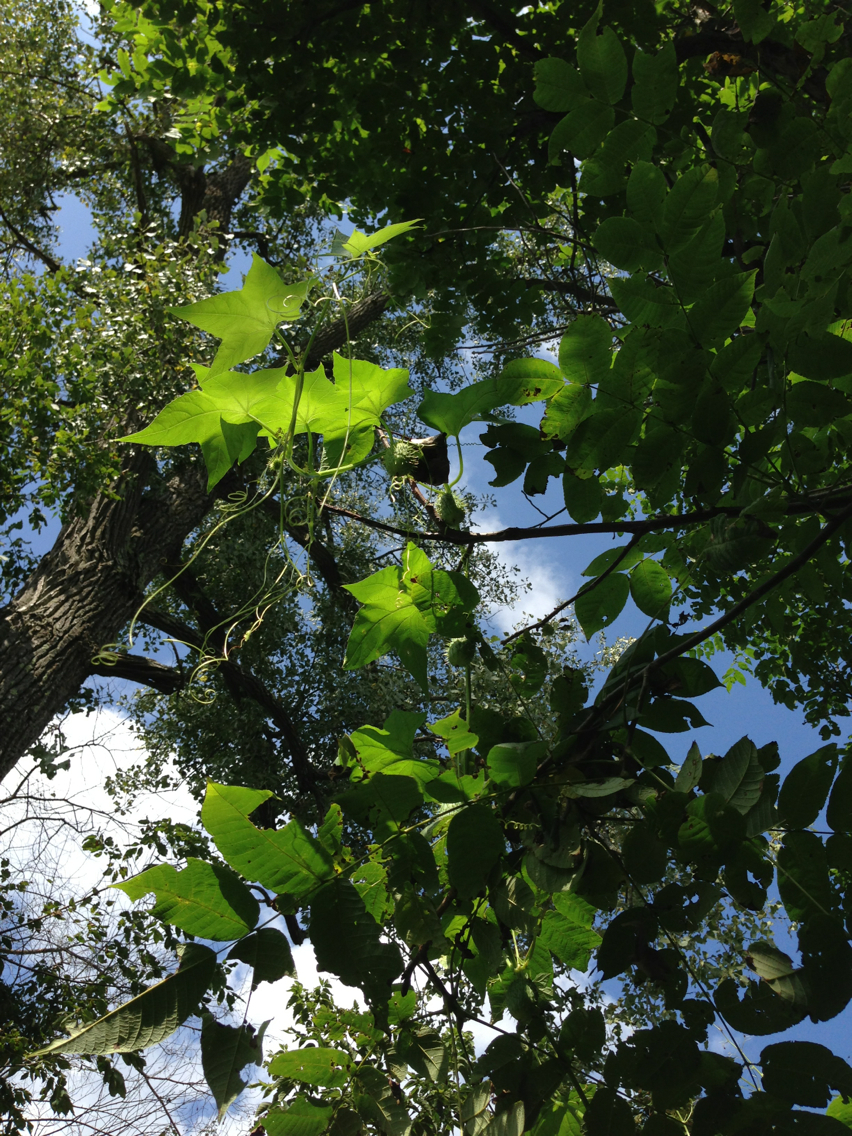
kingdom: Plantae
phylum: Tracheophyta
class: Magnoliopsida
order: Cucurbitales
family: Cucurbitaceae
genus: Echinocystis
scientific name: Echinocystis lobata
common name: Wild cucumber
